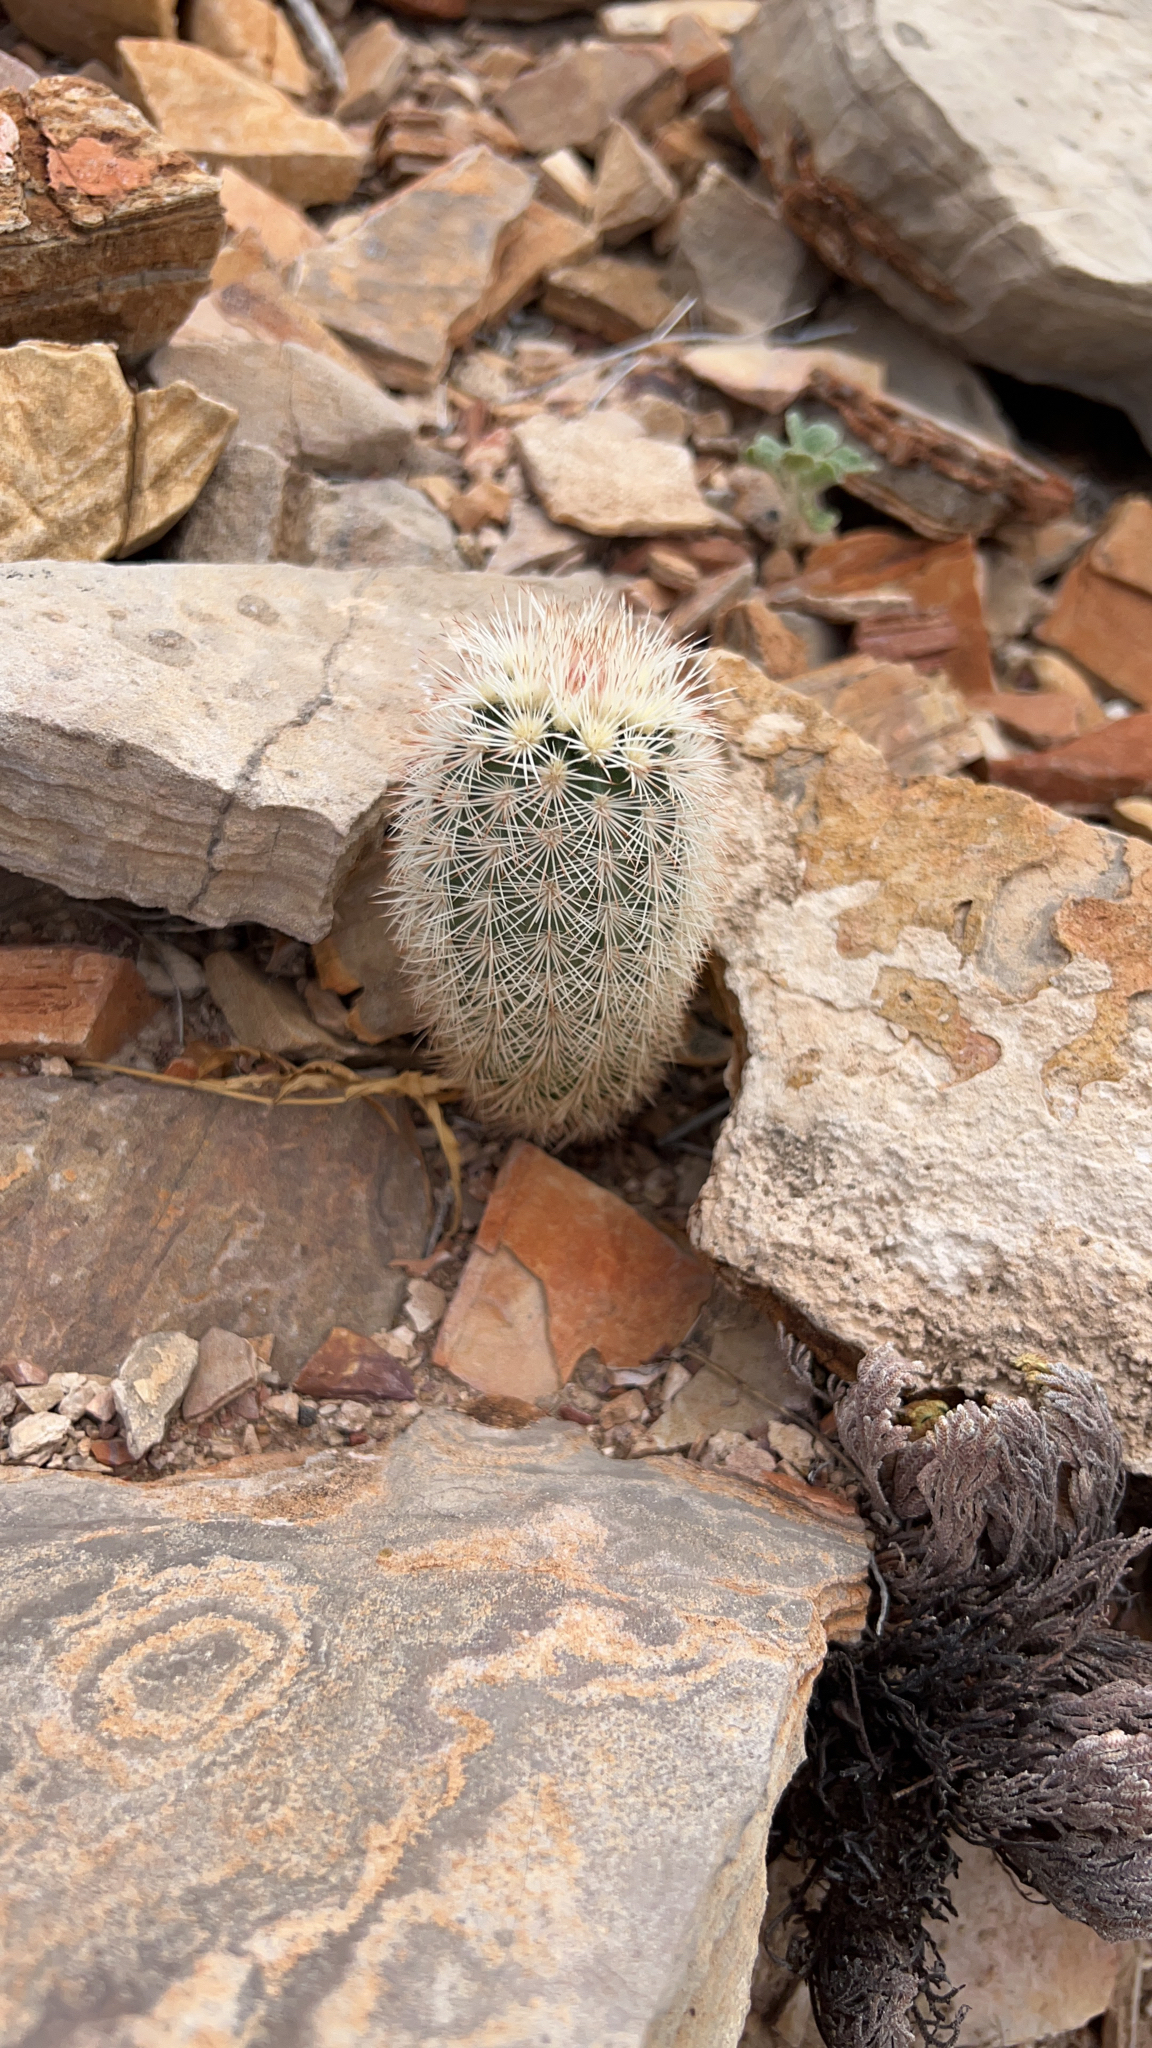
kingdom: Plantae
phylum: Tracheophyta
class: Magnoliopsida
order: Caryophyllales
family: Cactaceae
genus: Echinocereus
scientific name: Echinocereus dasyacanthus
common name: Spiny hedgehog cactus
